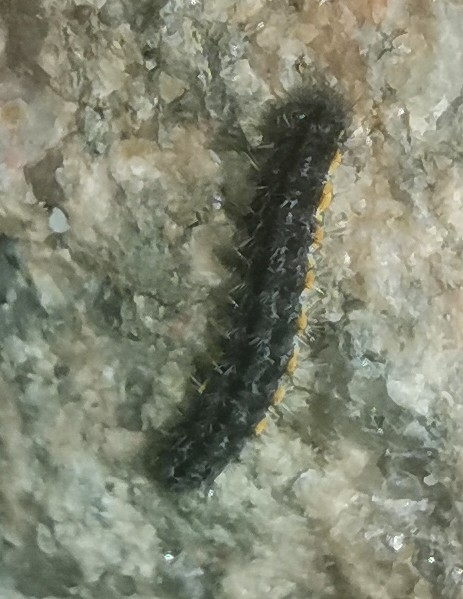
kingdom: Animalia
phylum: Arthropoda
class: Insecta
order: Lepidoptera
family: Erebidae
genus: Nyea
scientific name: Nyea lurideola
